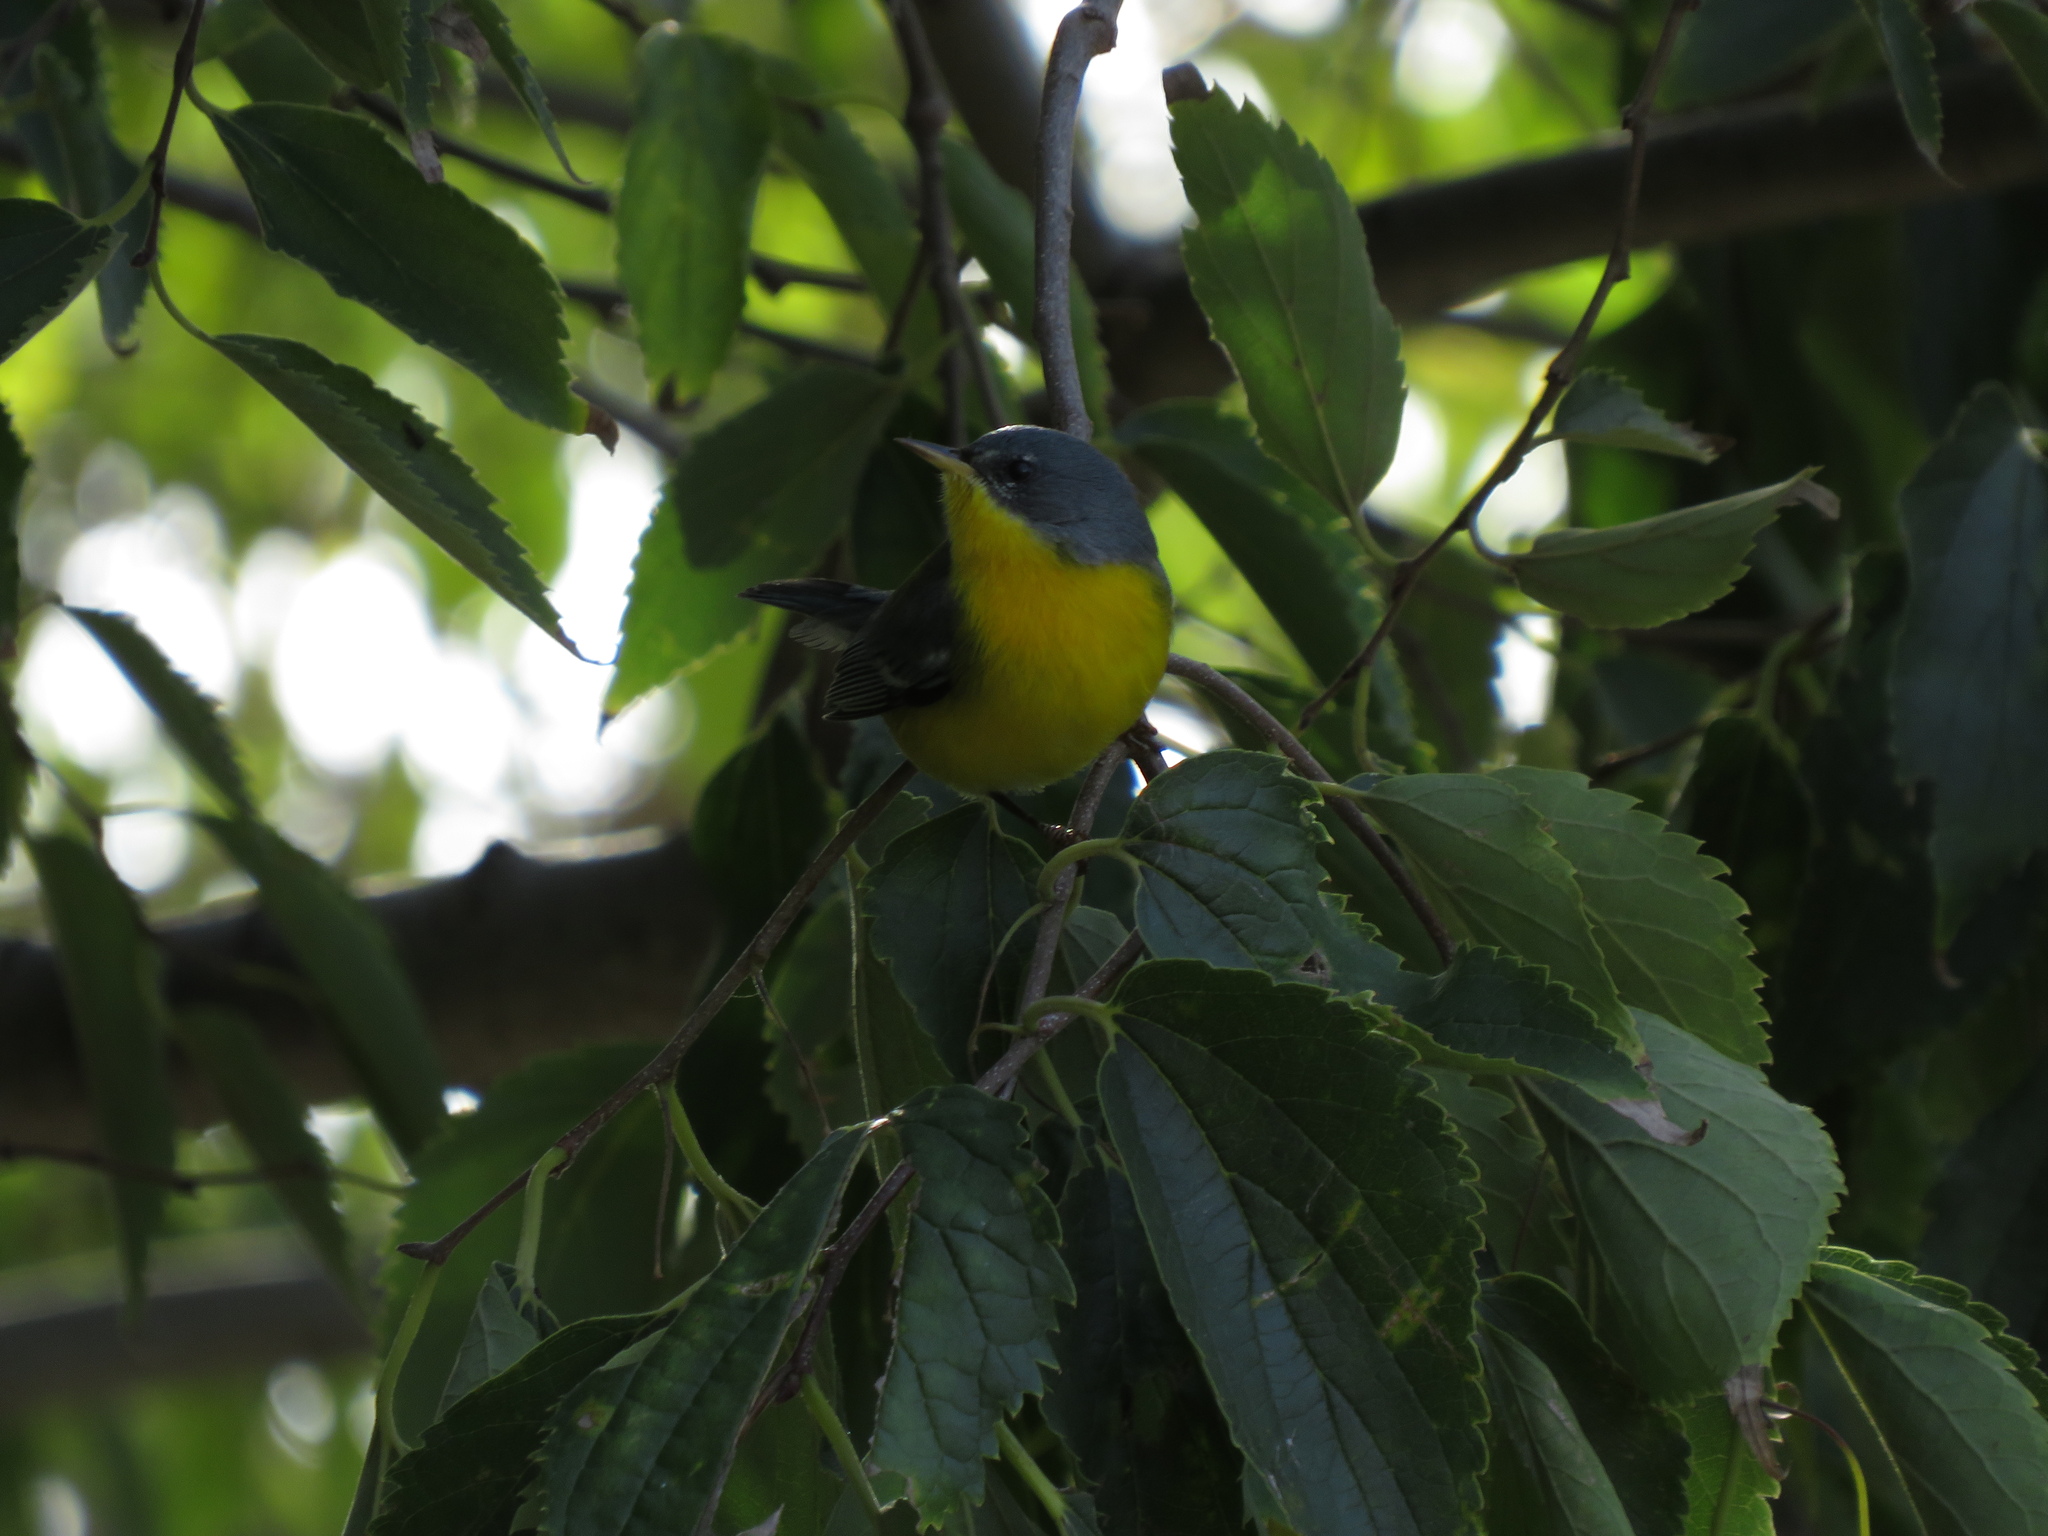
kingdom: Animalia
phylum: Chordata
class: Aves
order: Passeriformes
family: Parulidae
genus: Setophaga
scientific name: Setophaga pitiayumi
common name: Tropical parula
